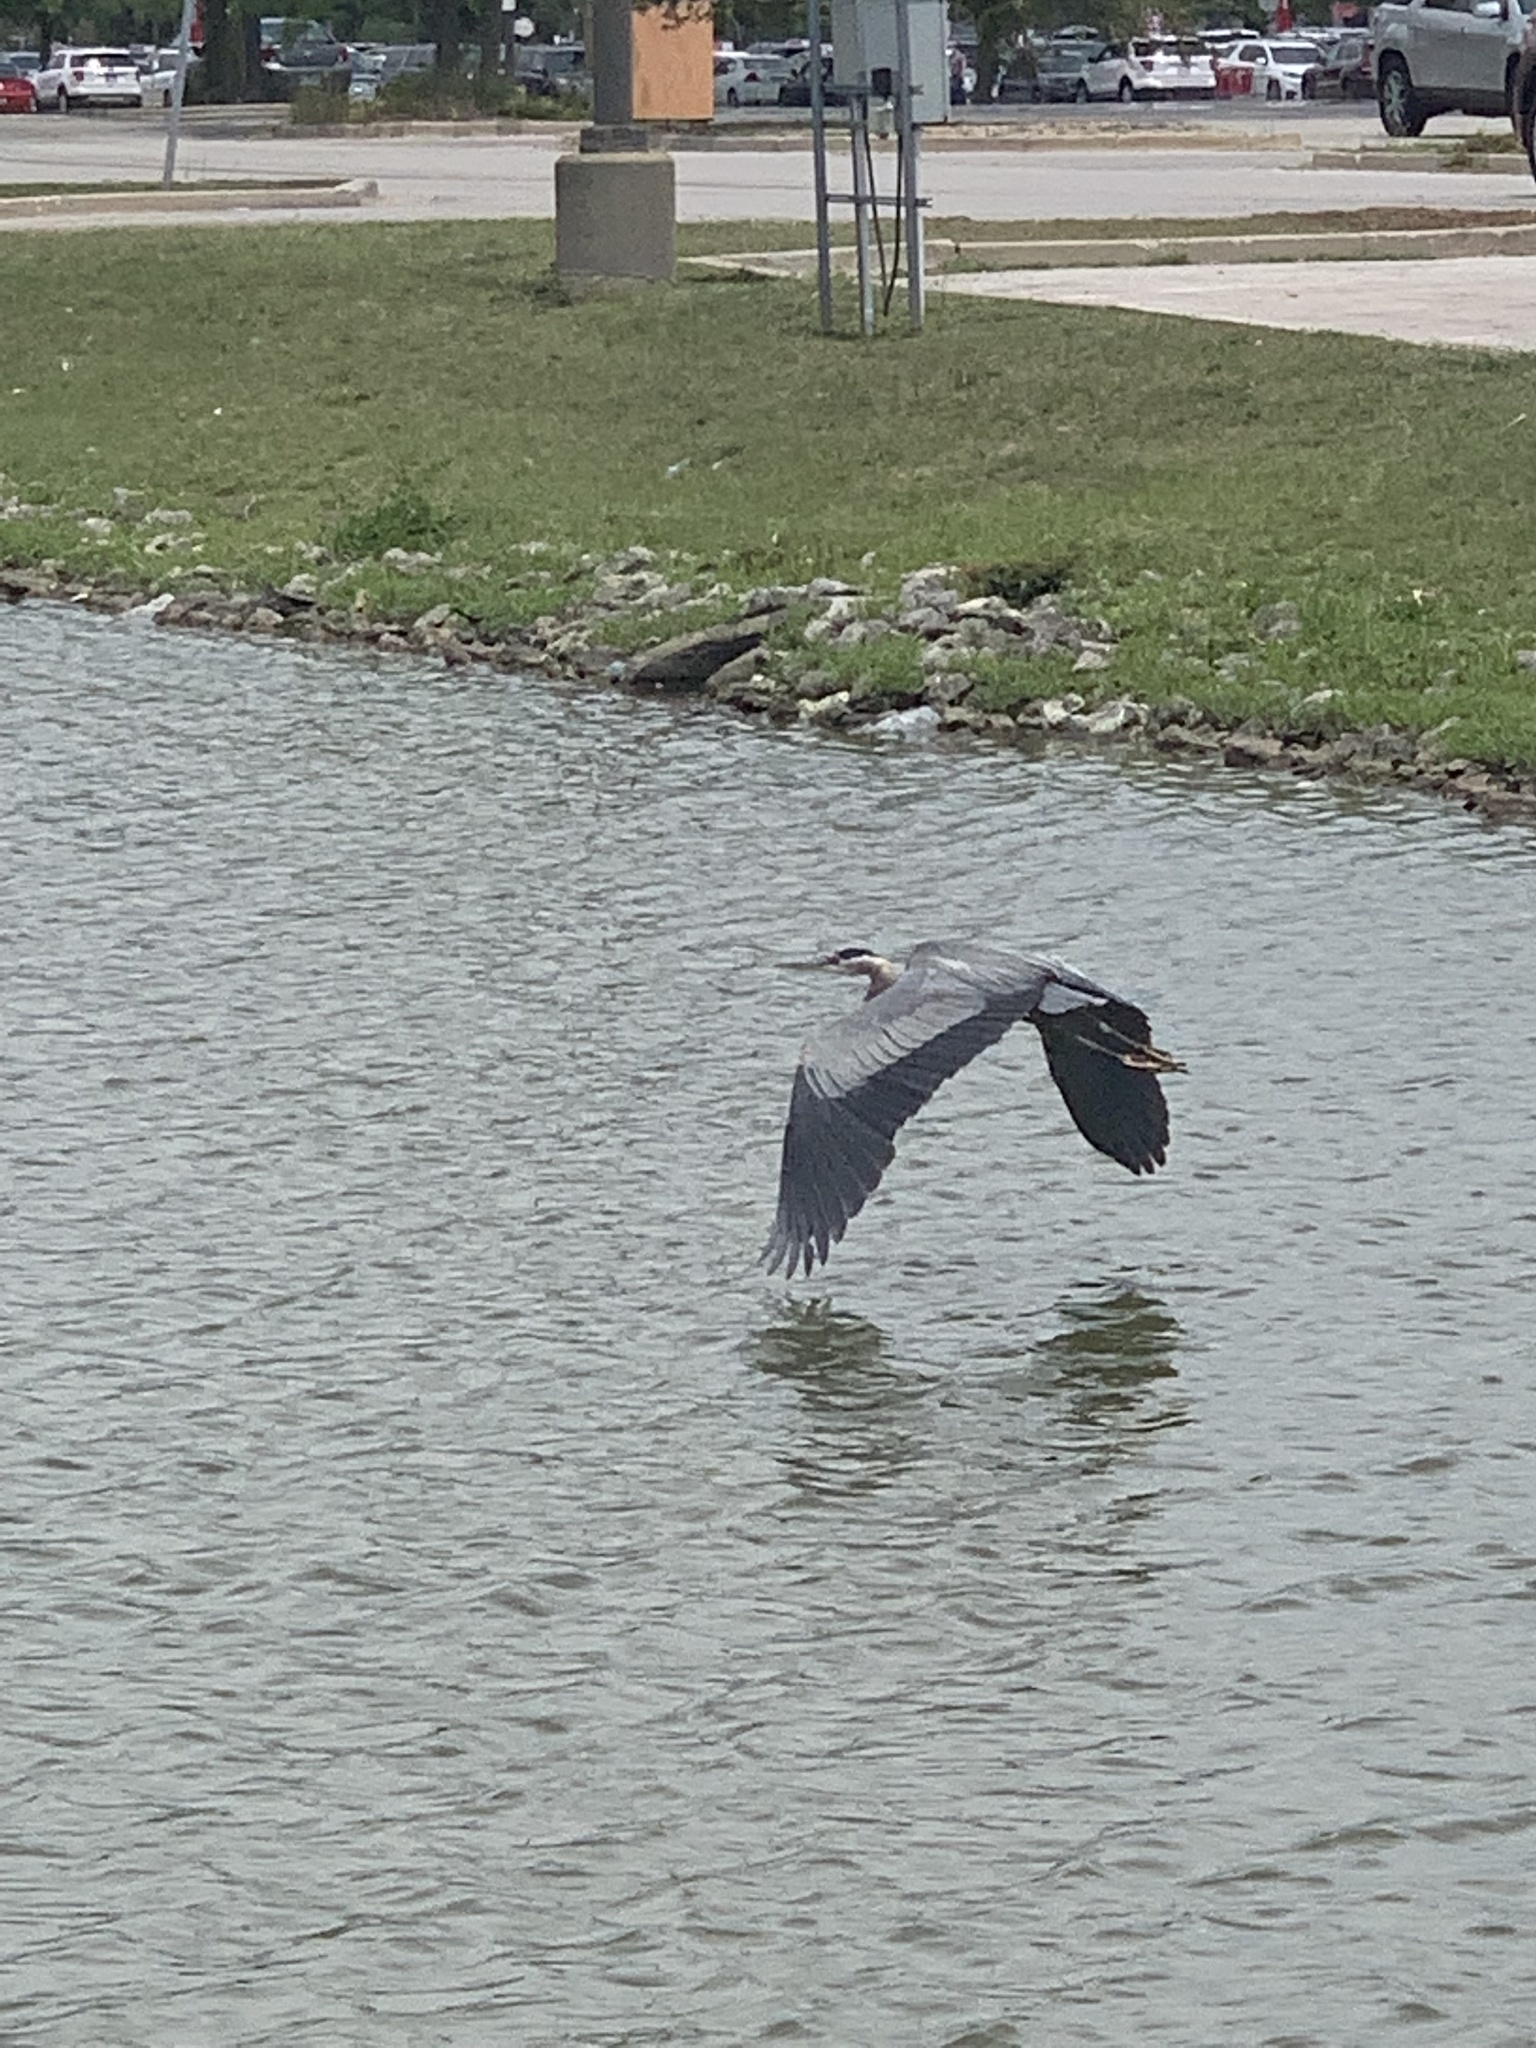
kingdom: Animalia
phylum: Chordata
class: Aves
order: Pelecaniformes
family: Ardeidae
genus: Ardea
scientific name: Ardea herodias
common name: Great blue heron
